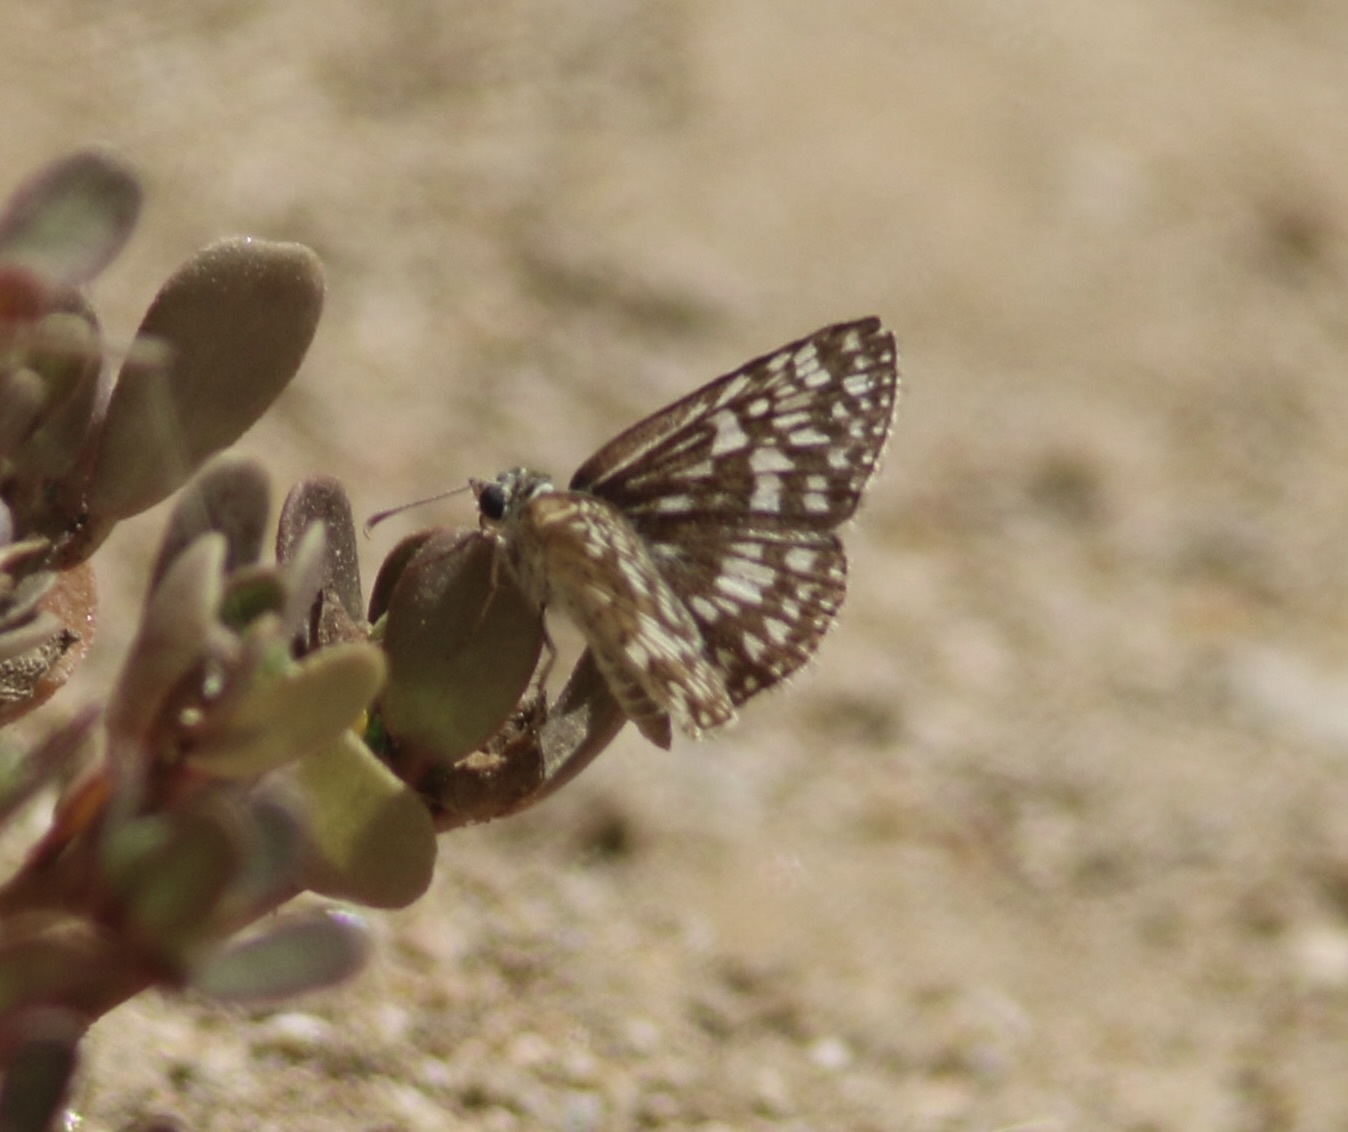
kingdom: Animalia
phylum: Arthropoda
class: Insecta
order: Lepidoptera
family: Hesperiidae
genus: Burnsius
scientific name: Burnsius philetas
